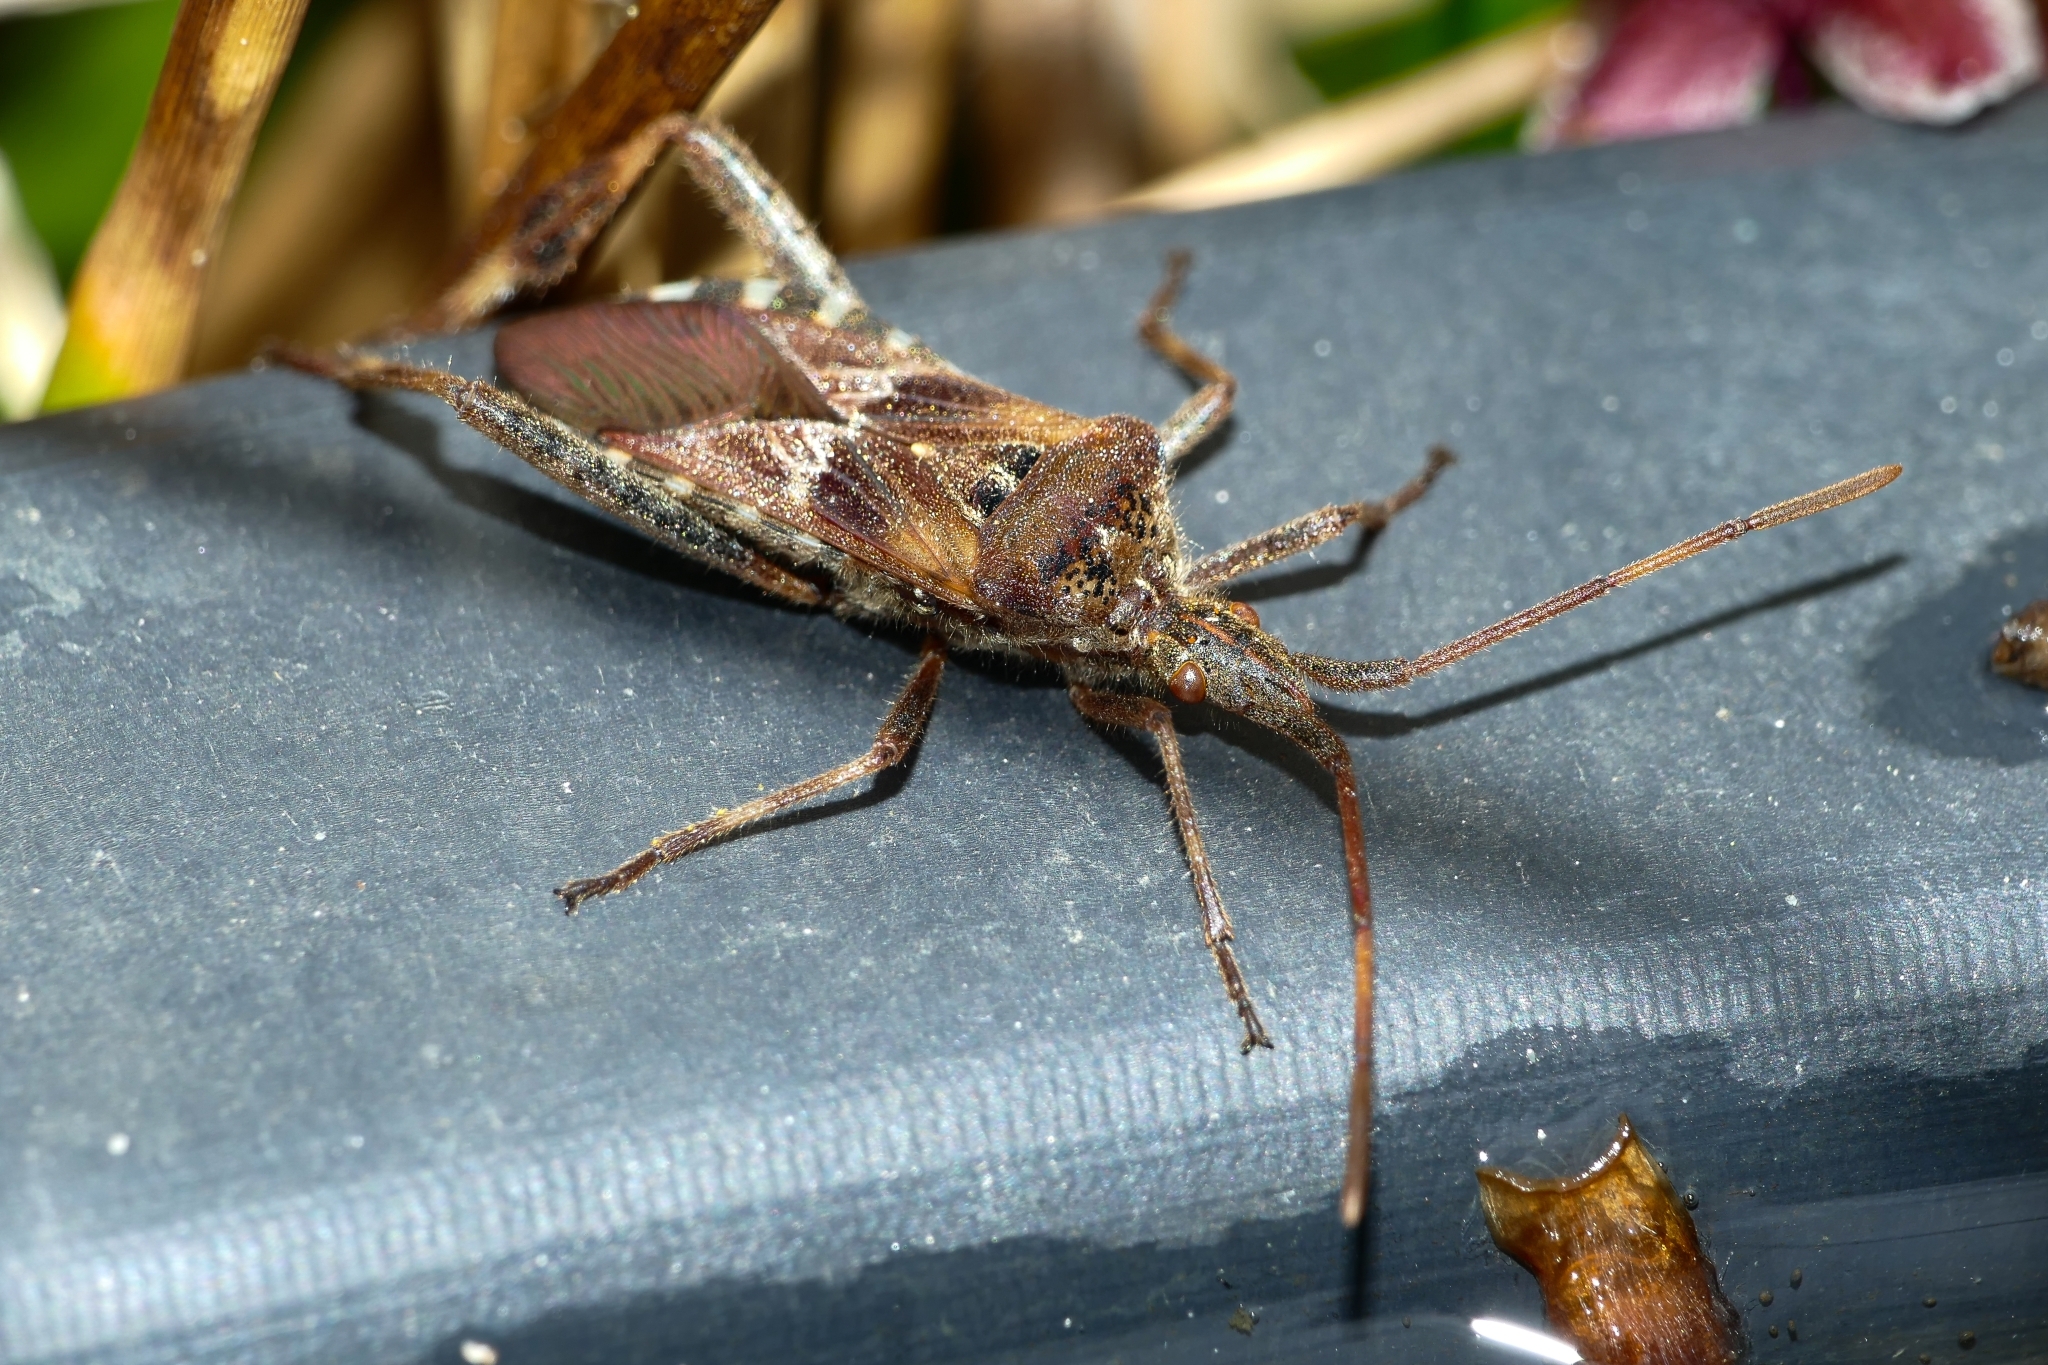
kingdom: Animalia
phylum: Arthropoda
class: Insecta
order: Hemiptera
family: Coreidae
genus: Leptoglossus
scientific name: Leptoglossus occidentalis
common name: Western conifer-seed bug
